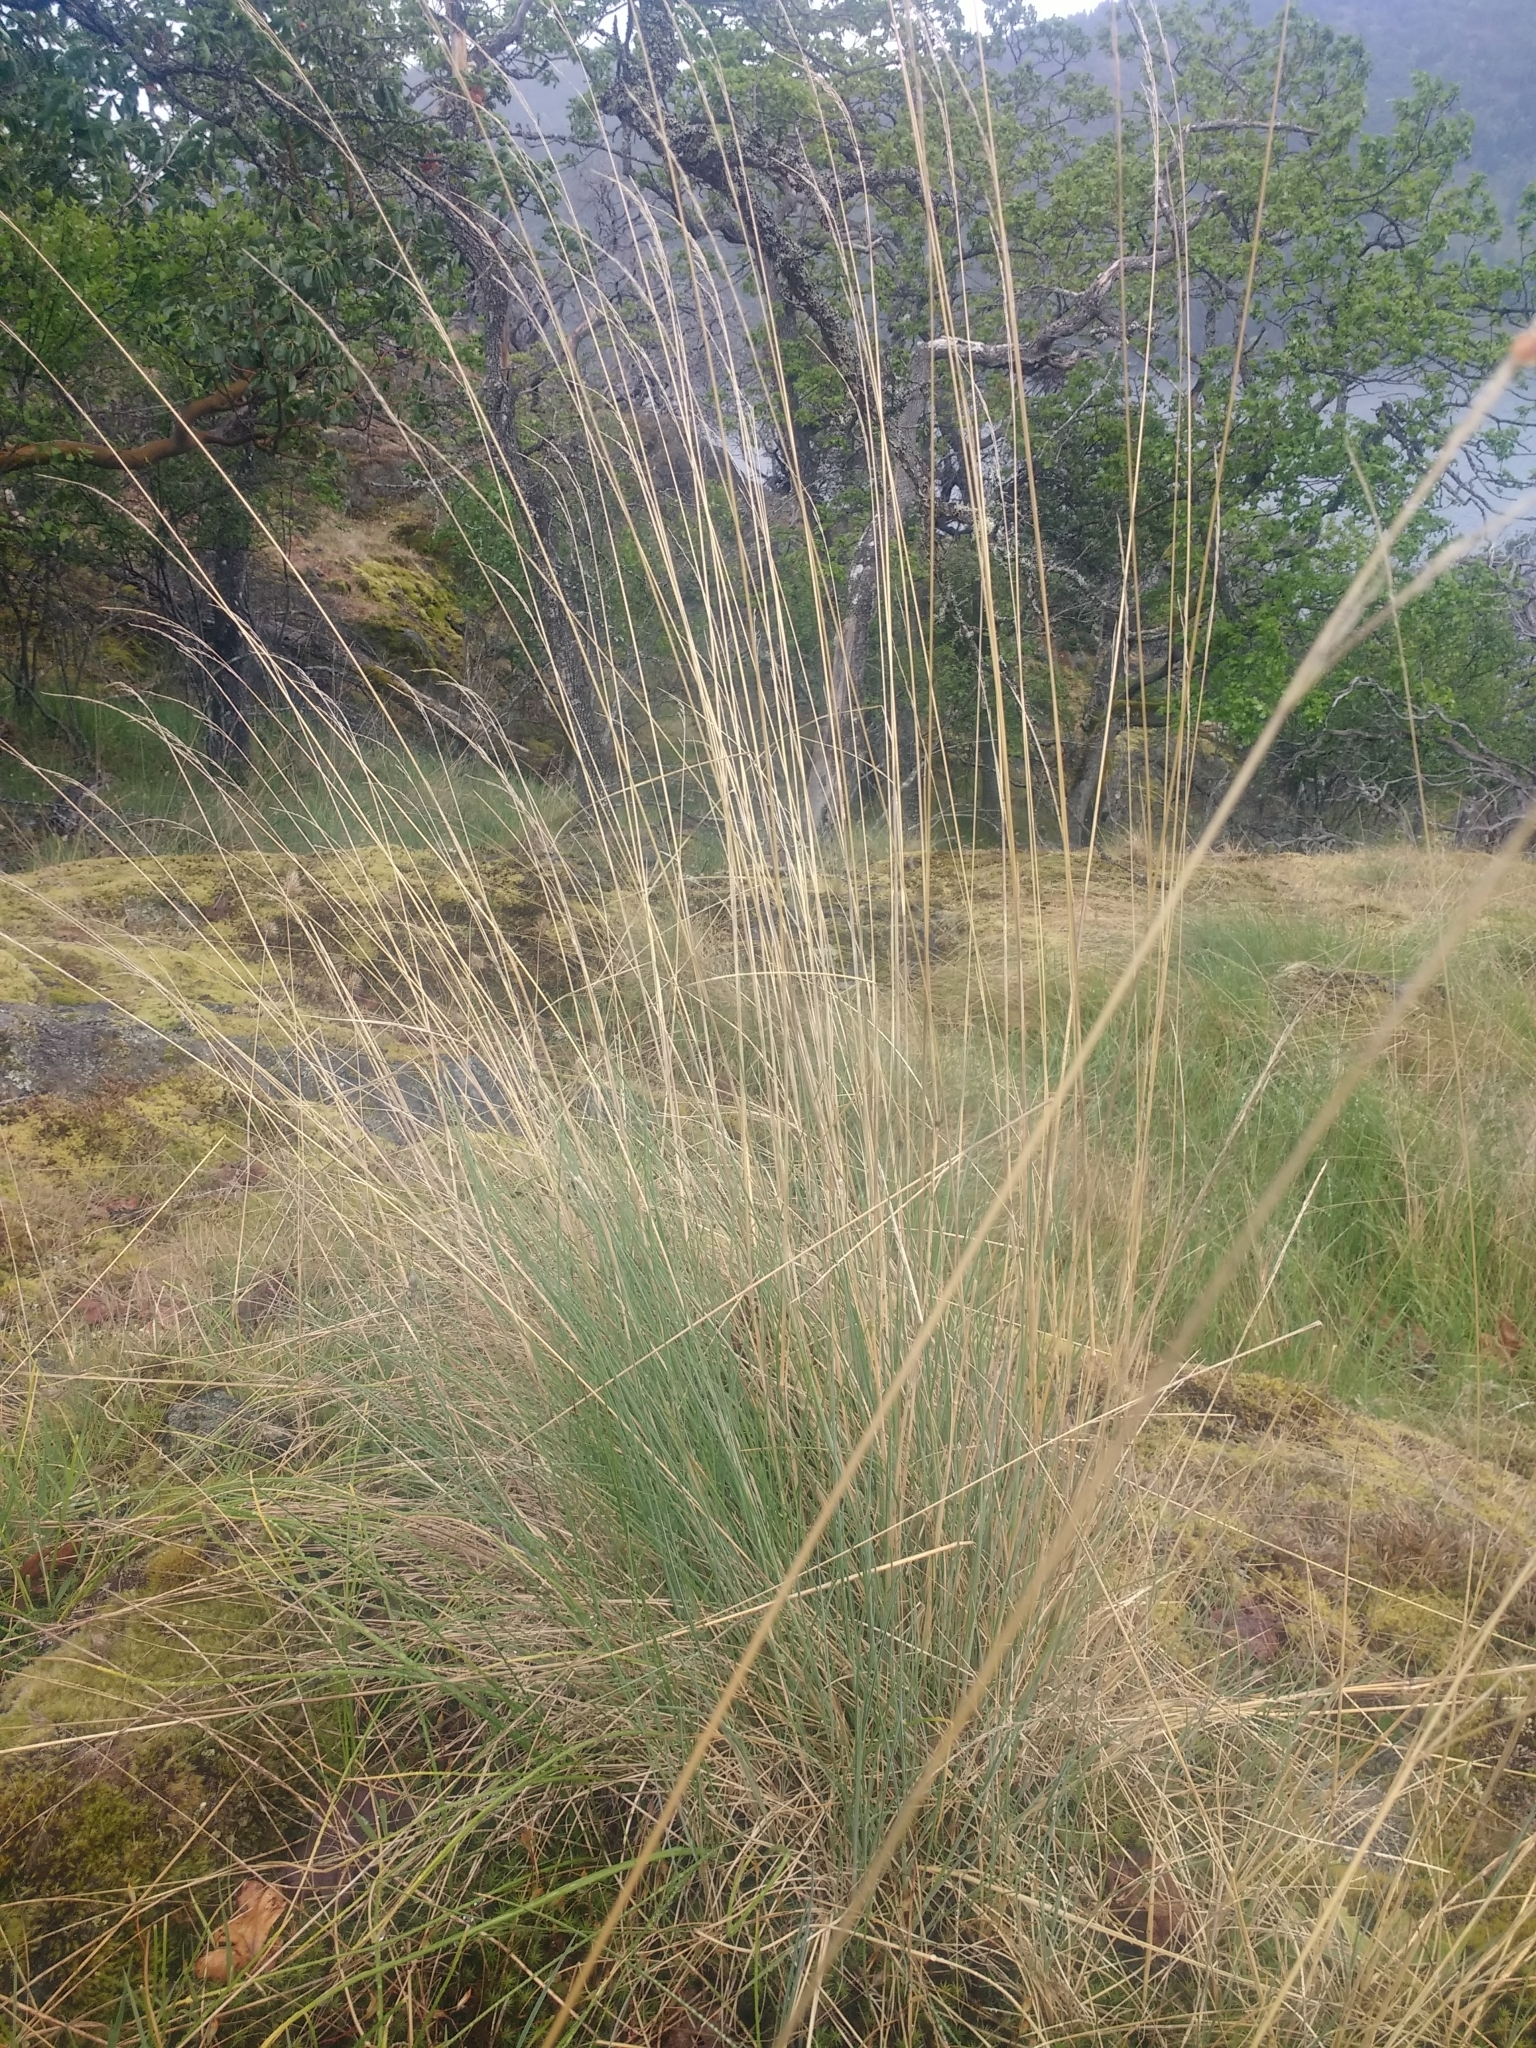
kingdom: Plantae
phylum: Tracheophyta
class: Liliopsida
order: Poales
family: Poaceae
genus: Festuca
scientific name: Festuca idahoensis
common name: Idaho fescue
